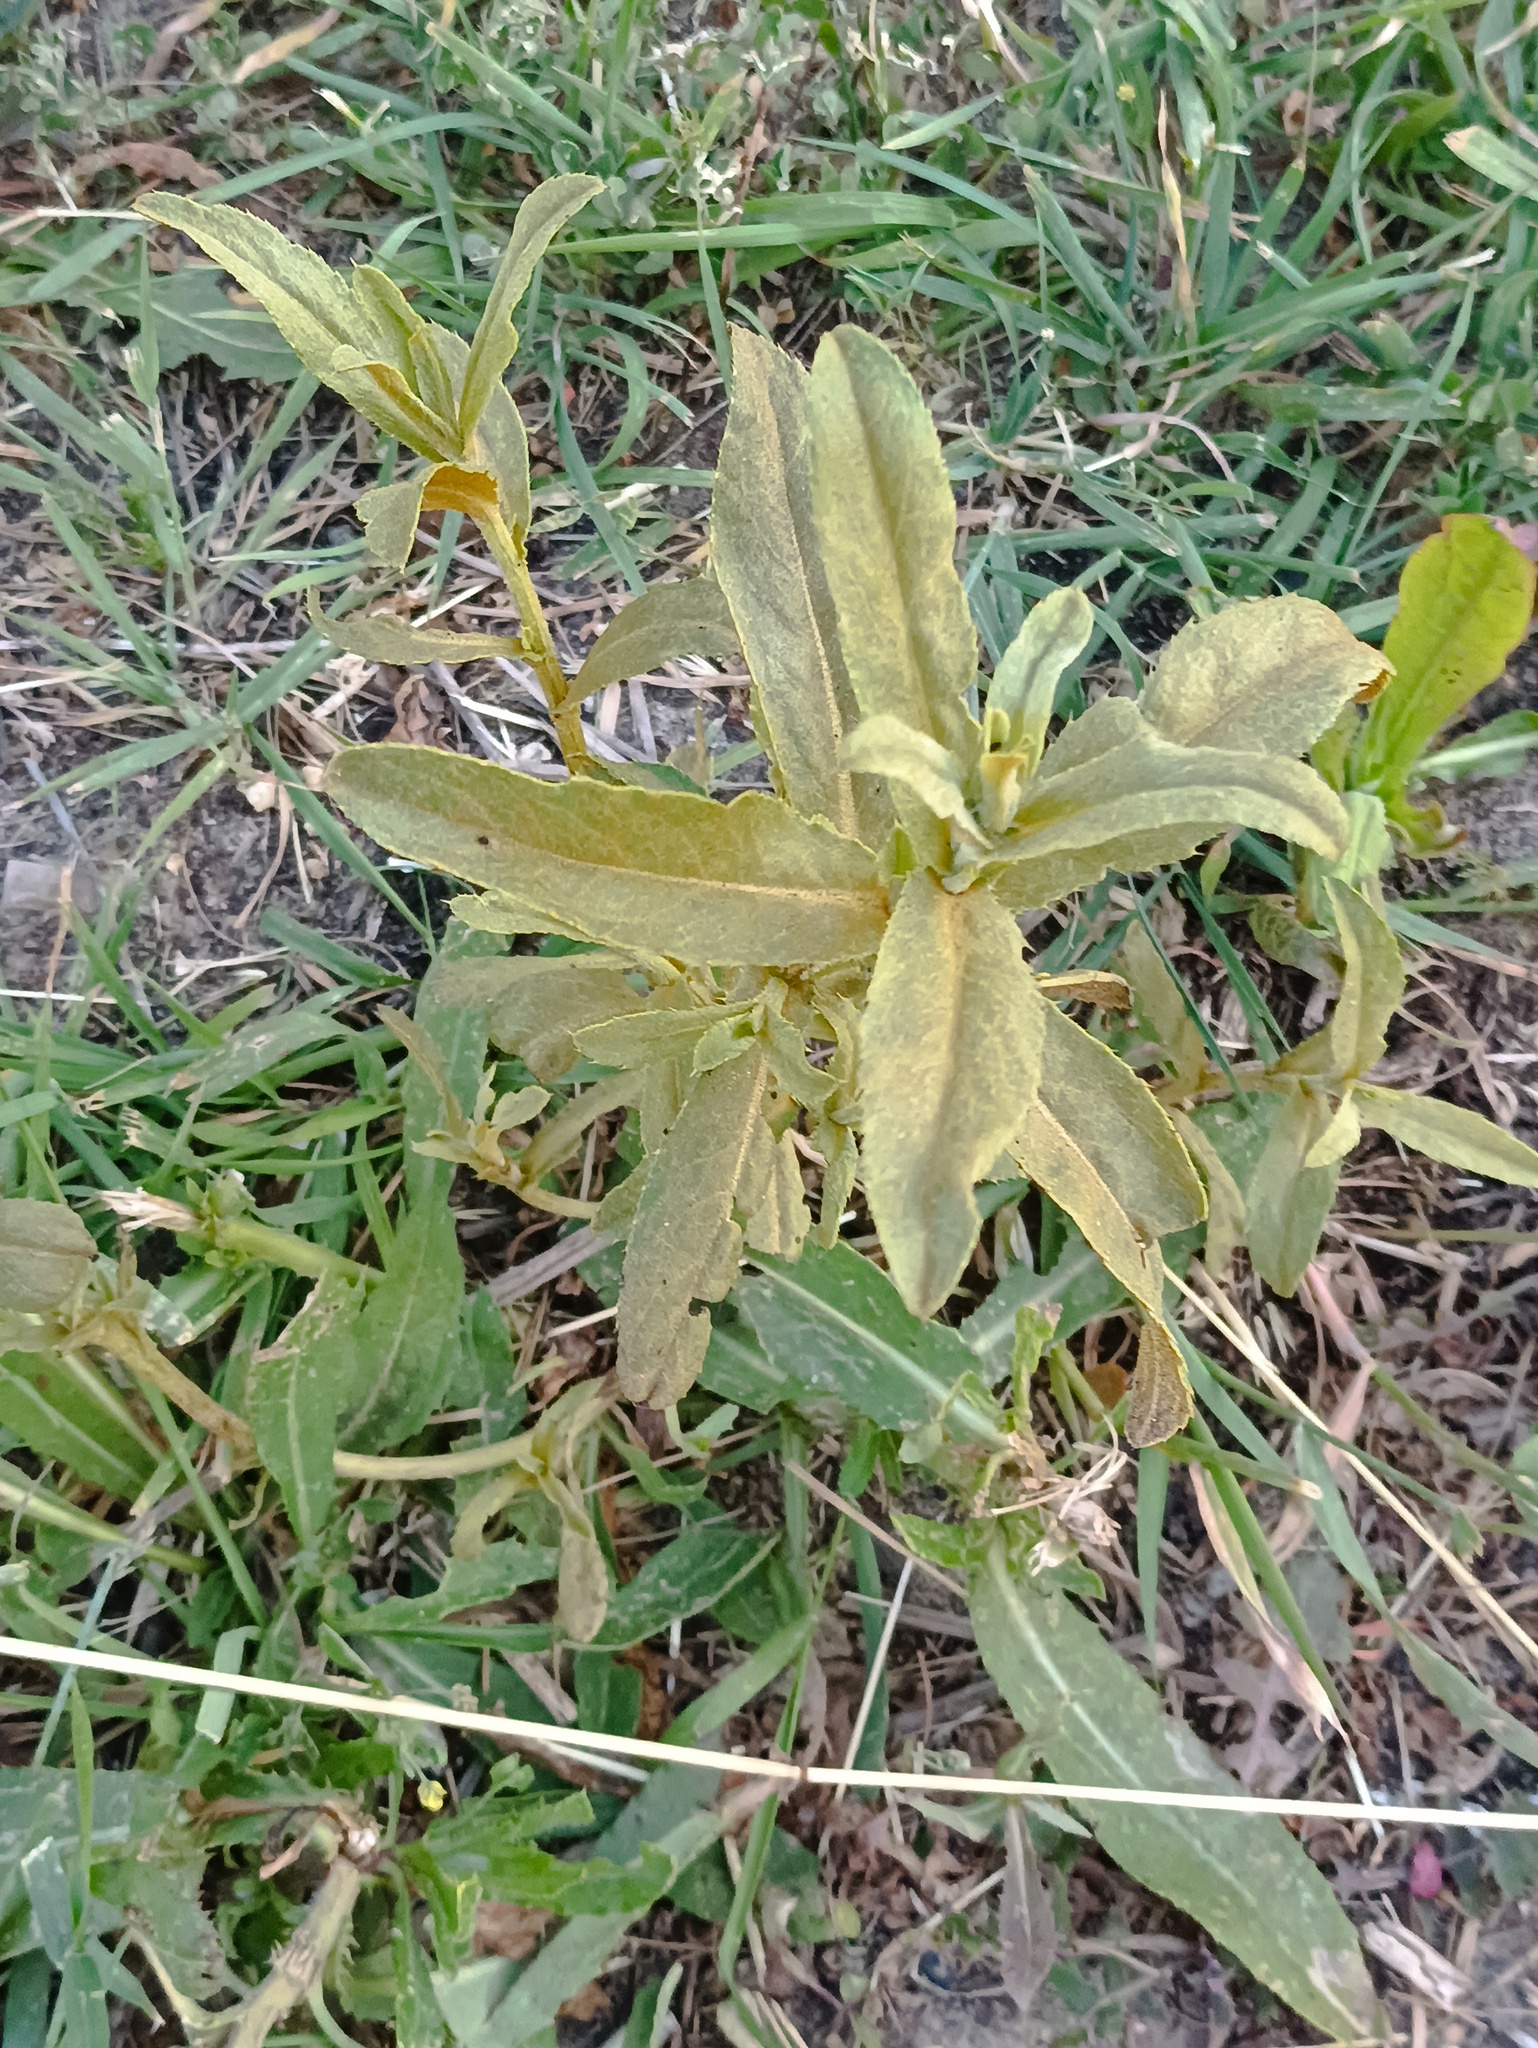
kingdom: Fungi
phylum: Basidiomycota
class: Pucciniomycetes
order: Pucciniales
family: Pucciniaceae
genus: Puccinia
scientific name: Puccinia suaveolens
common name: Thistle rust
